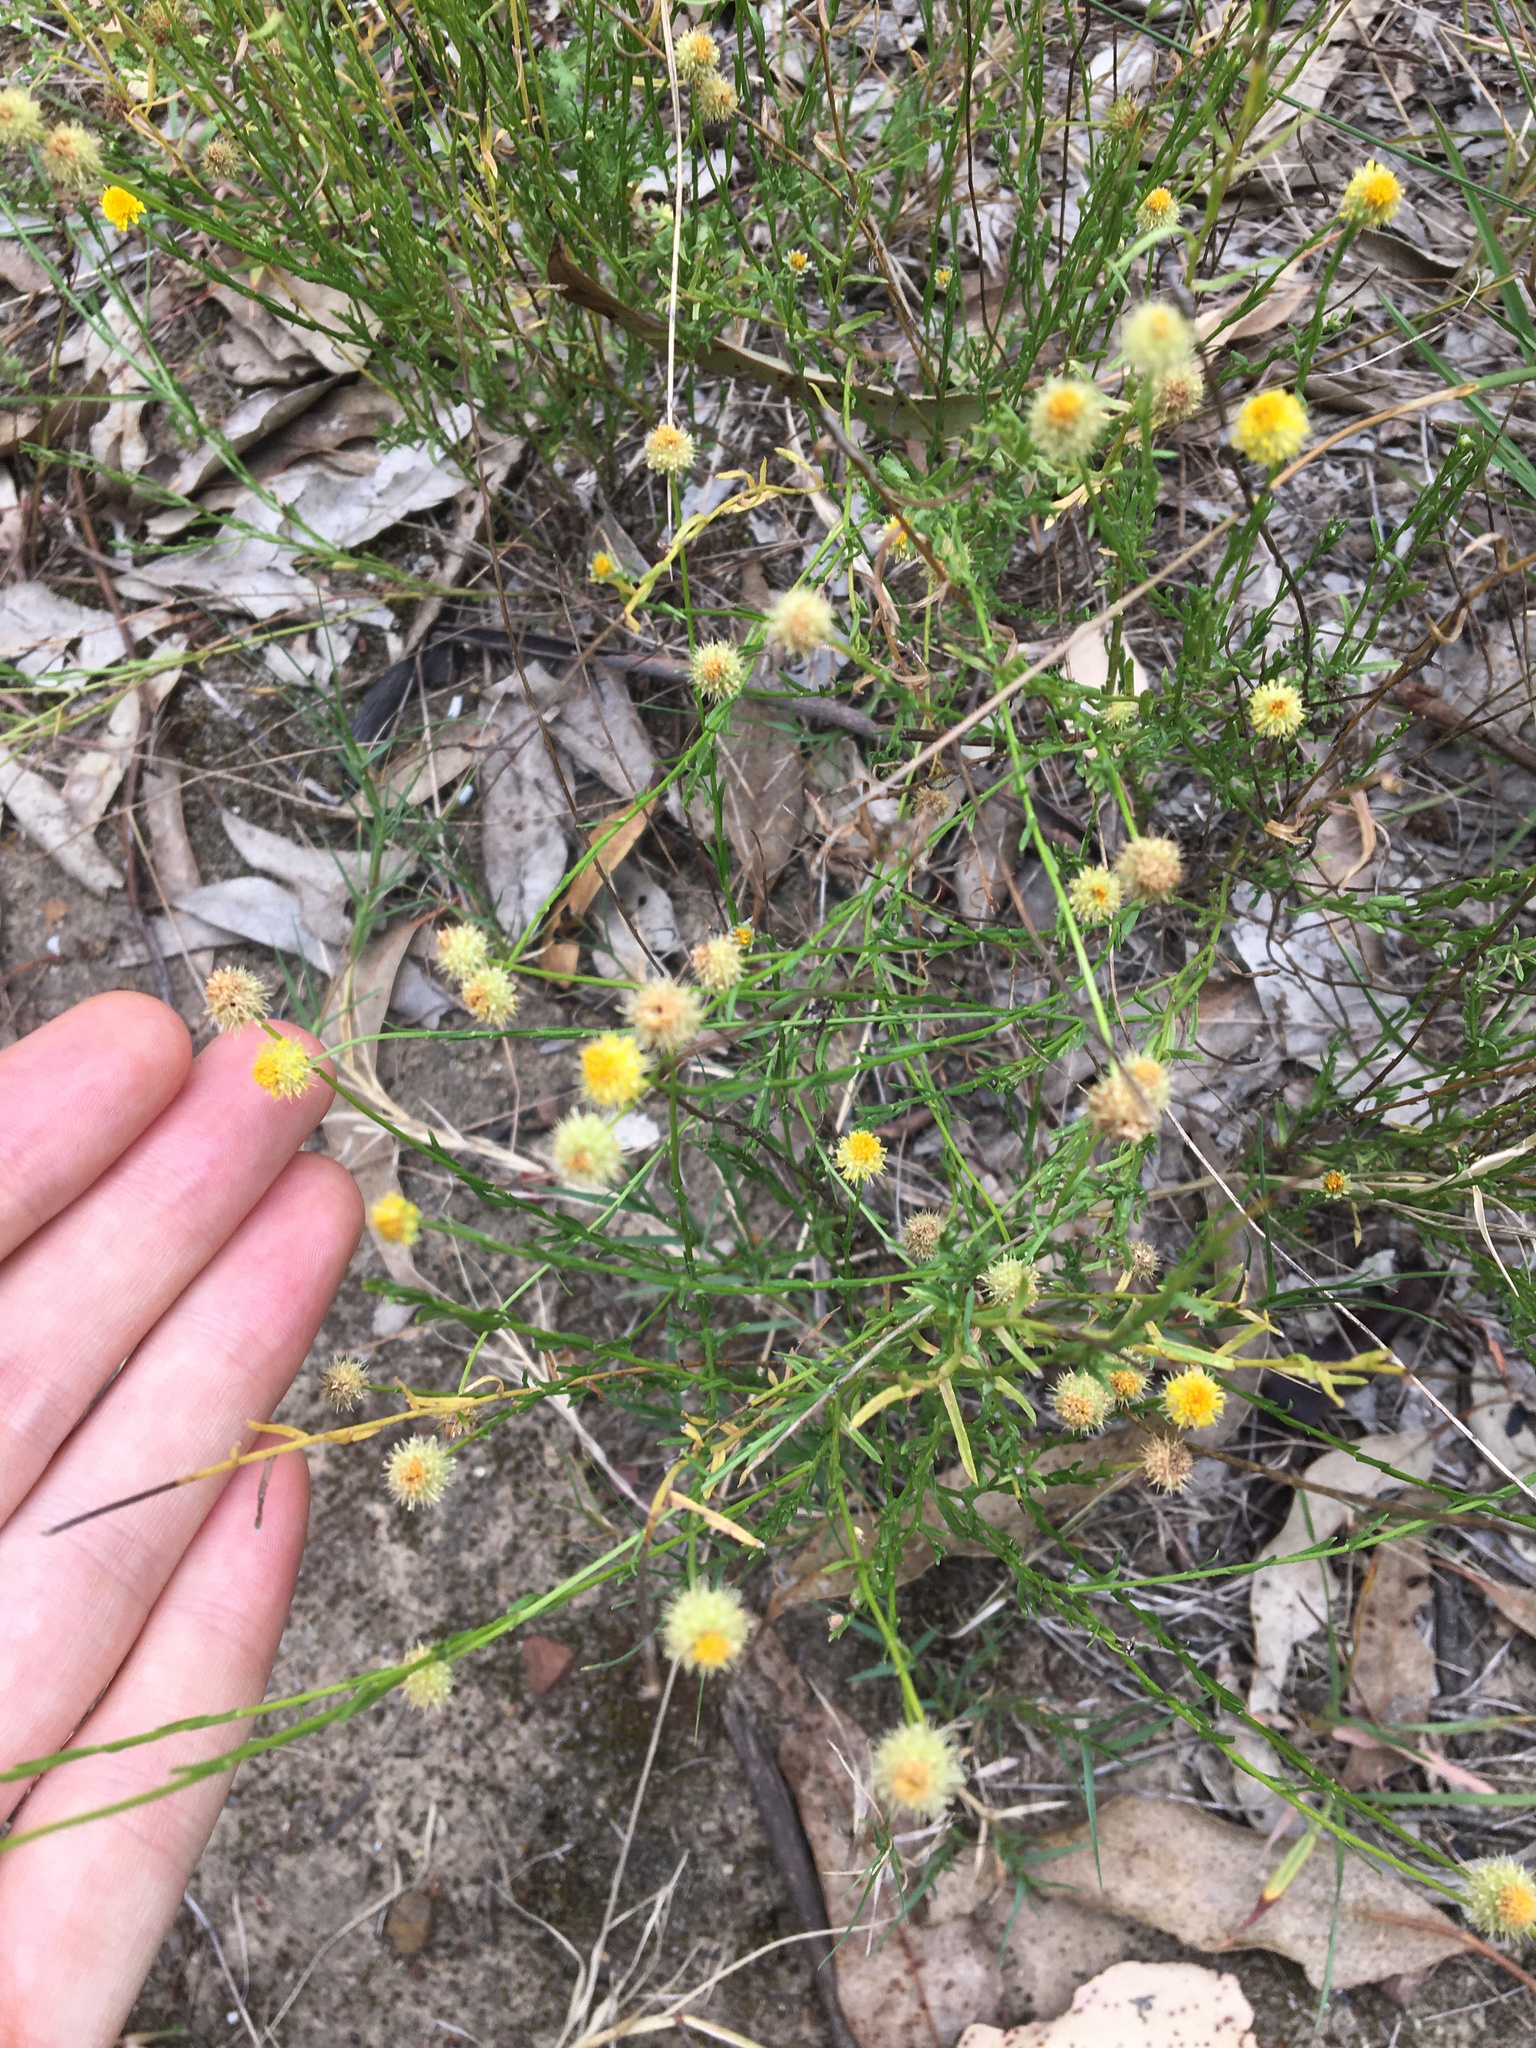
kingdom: Plantae
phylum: Tracheophyta
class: Magnoliopsida
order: Asterales
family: Asteraceae
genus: Calotis
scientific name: Calotis lappulacea
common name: Bur daisy
